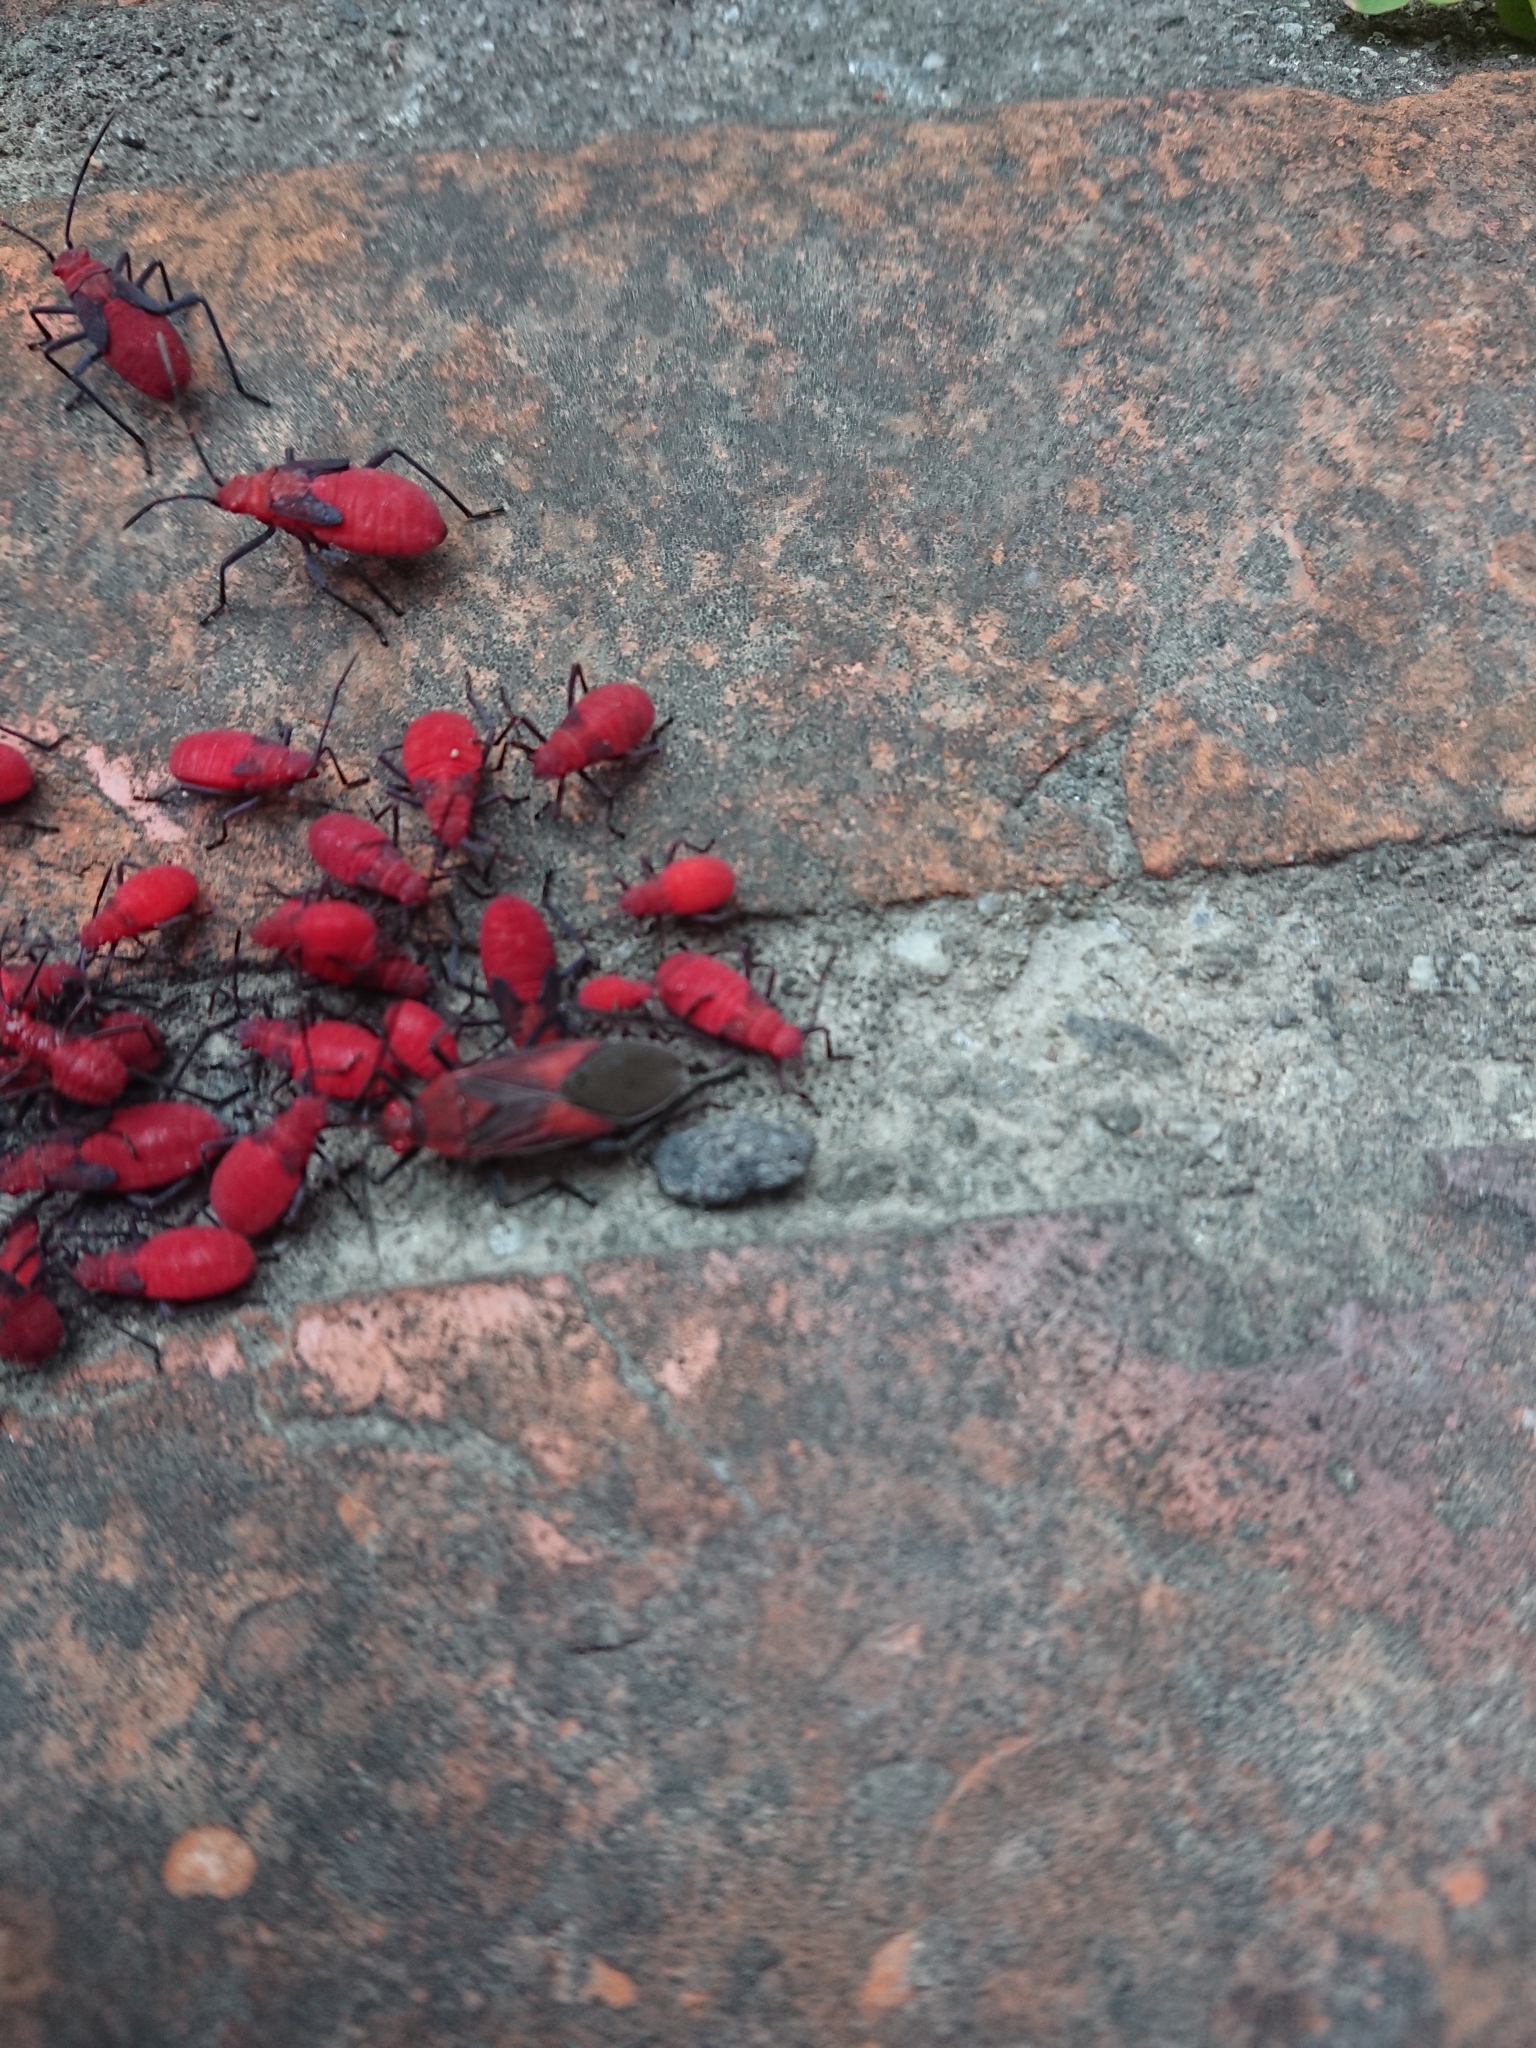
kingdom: Animalia
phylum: Arthropoda
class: Insecta
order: Hemiptera
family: Rhopalidae
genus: Leptocoris
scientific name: Leptocoris vicinus
